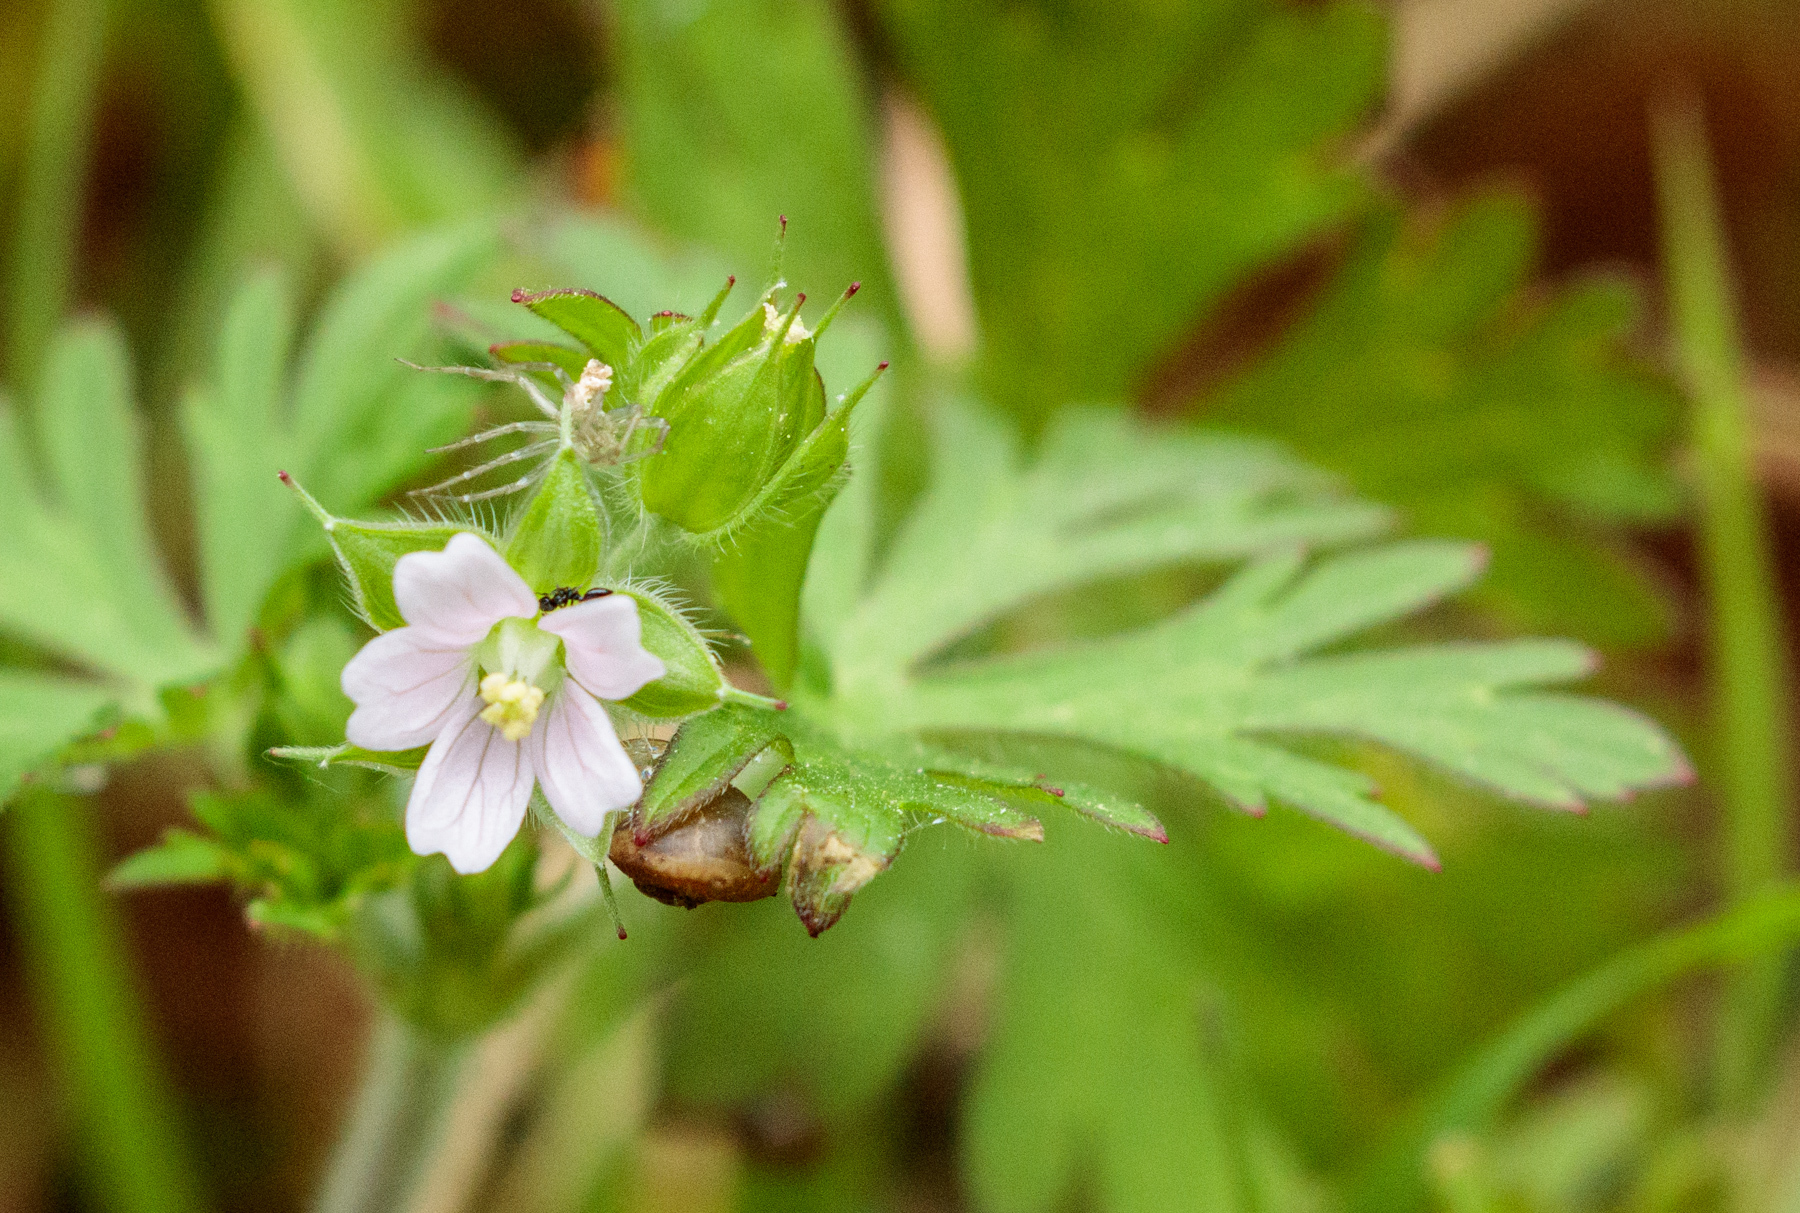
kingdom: Plantae
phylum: Tracheophyta
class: Magnoliopsida
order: Geraniales
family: Geraniaceae
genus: Geranium
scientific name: Geranium carolinianum
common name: Carolina crane's-bill
